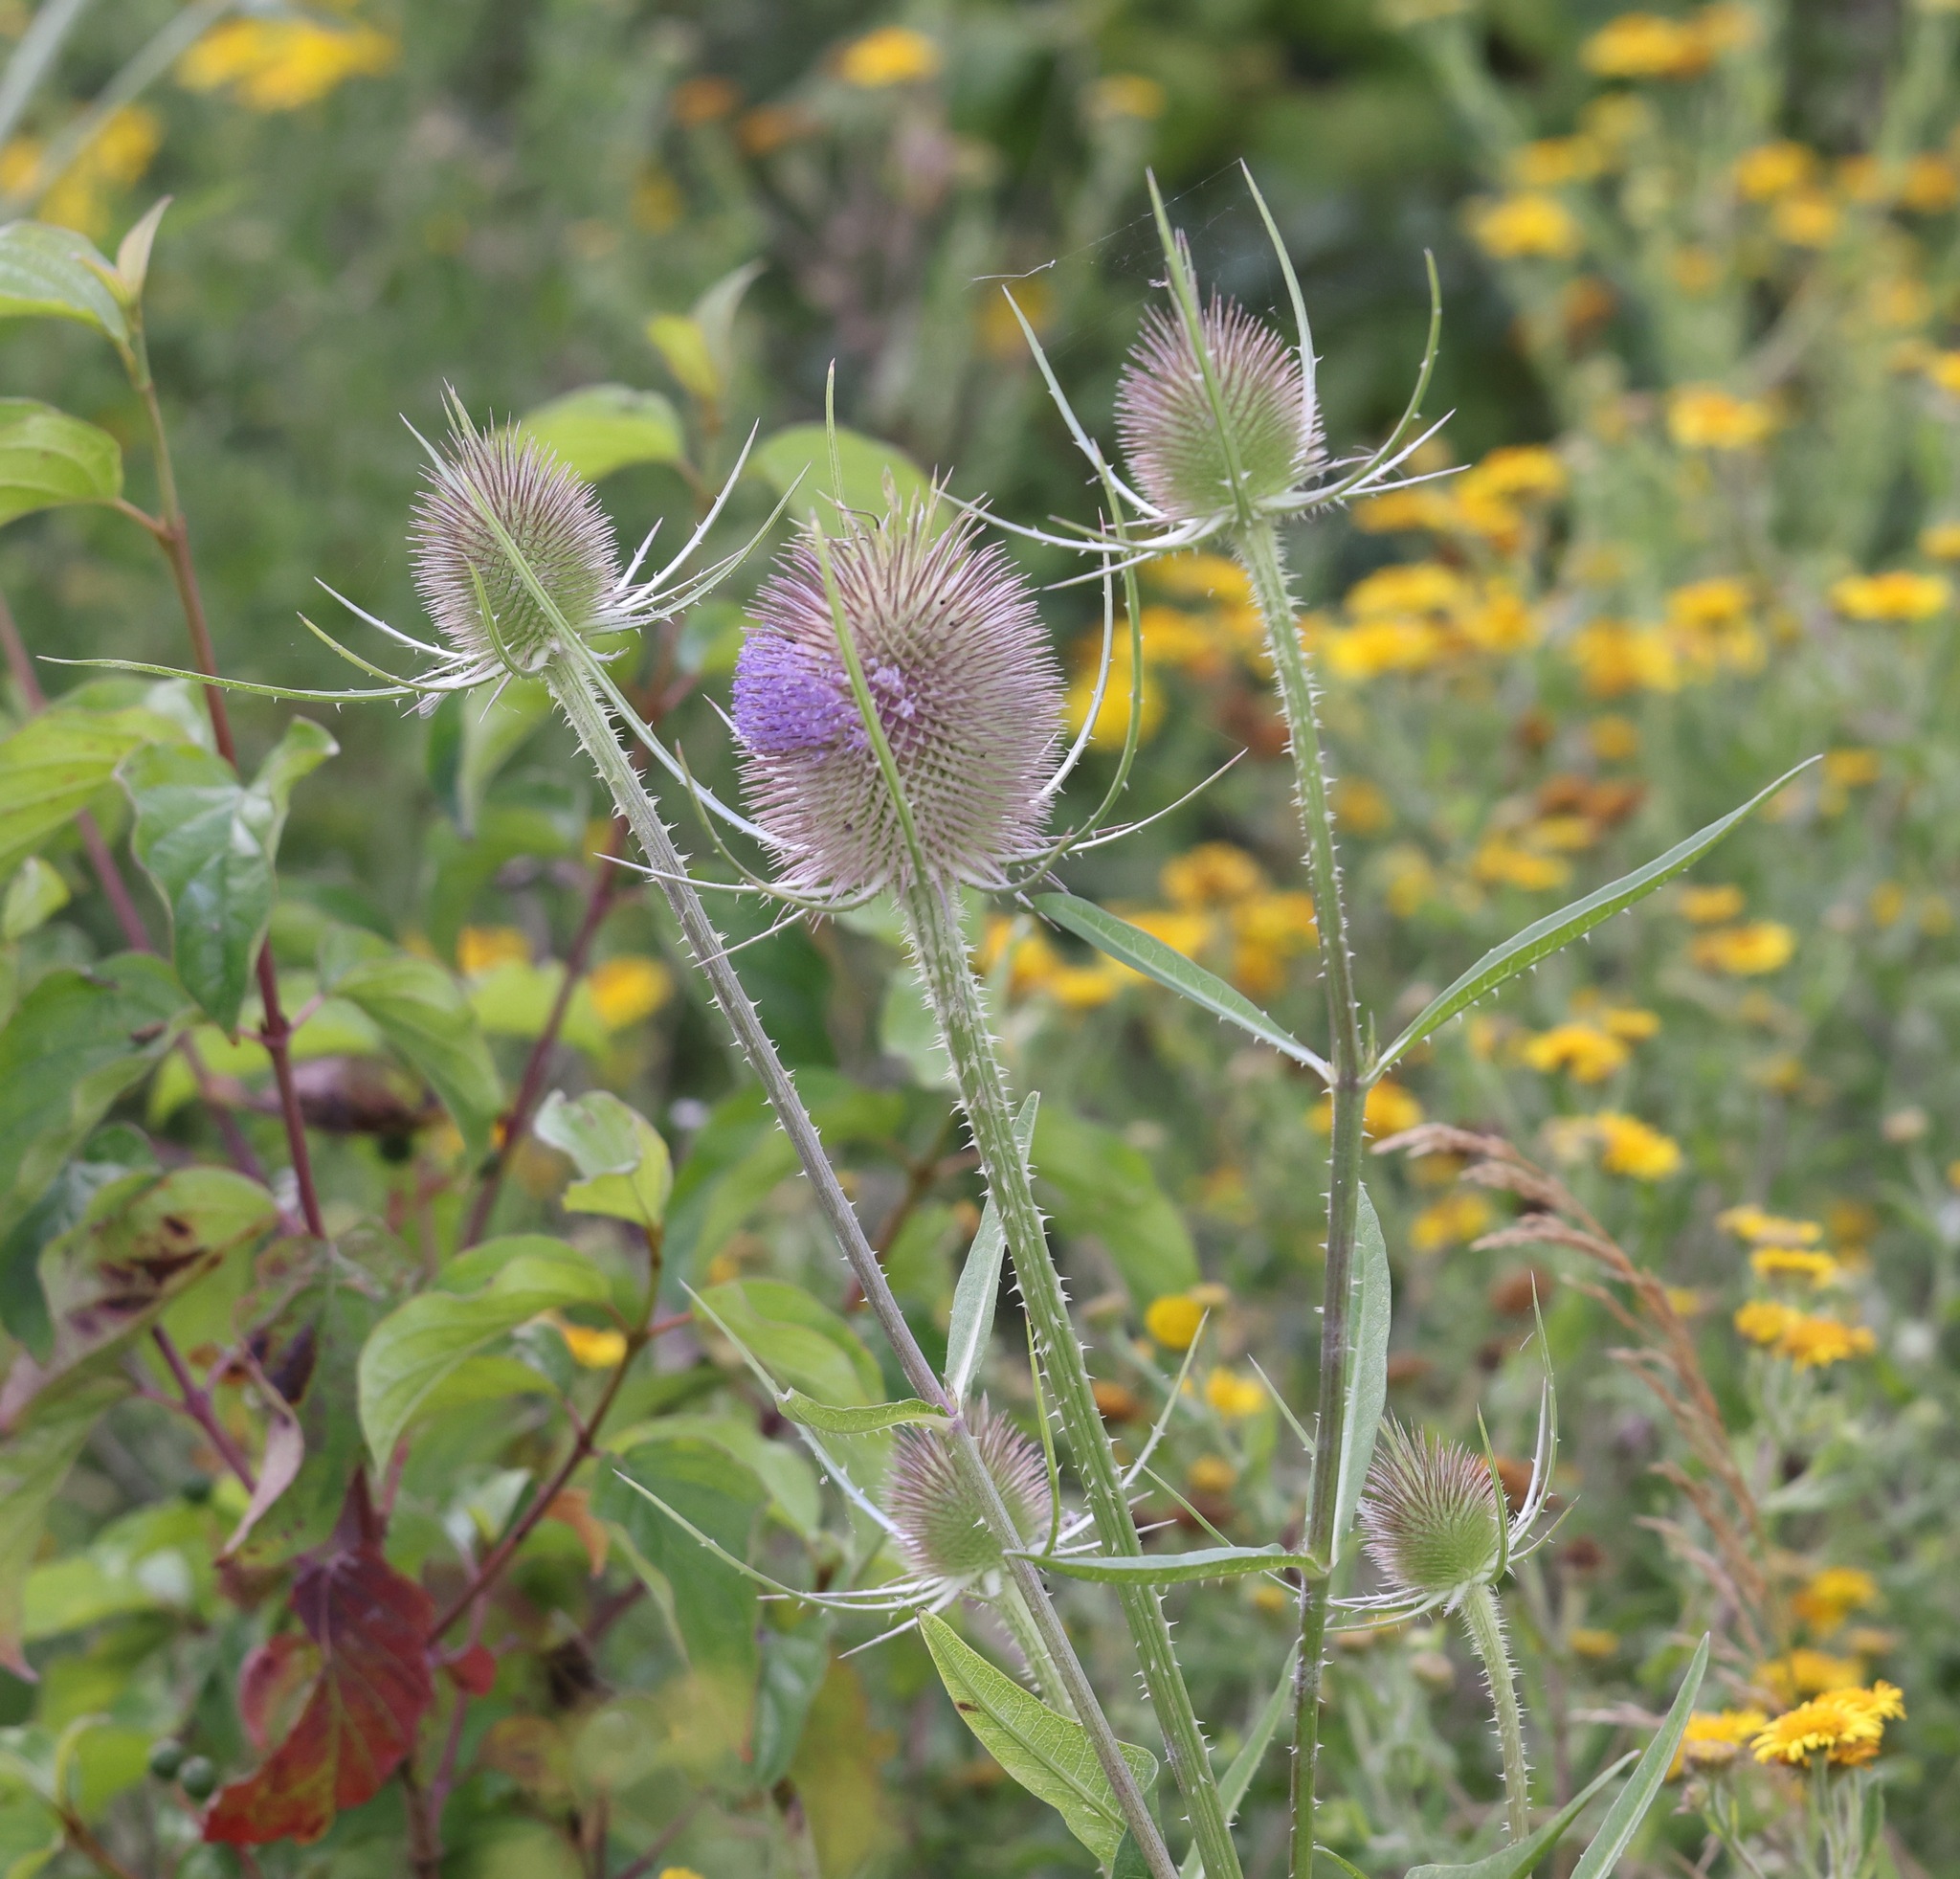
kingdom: Plantae
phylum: Tracheophyta
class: Magnoliopsida
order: Dipsacales
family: Caprifoliaceae
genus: Dipsacus
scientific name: Dipsacus fullonum
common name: Teasel
